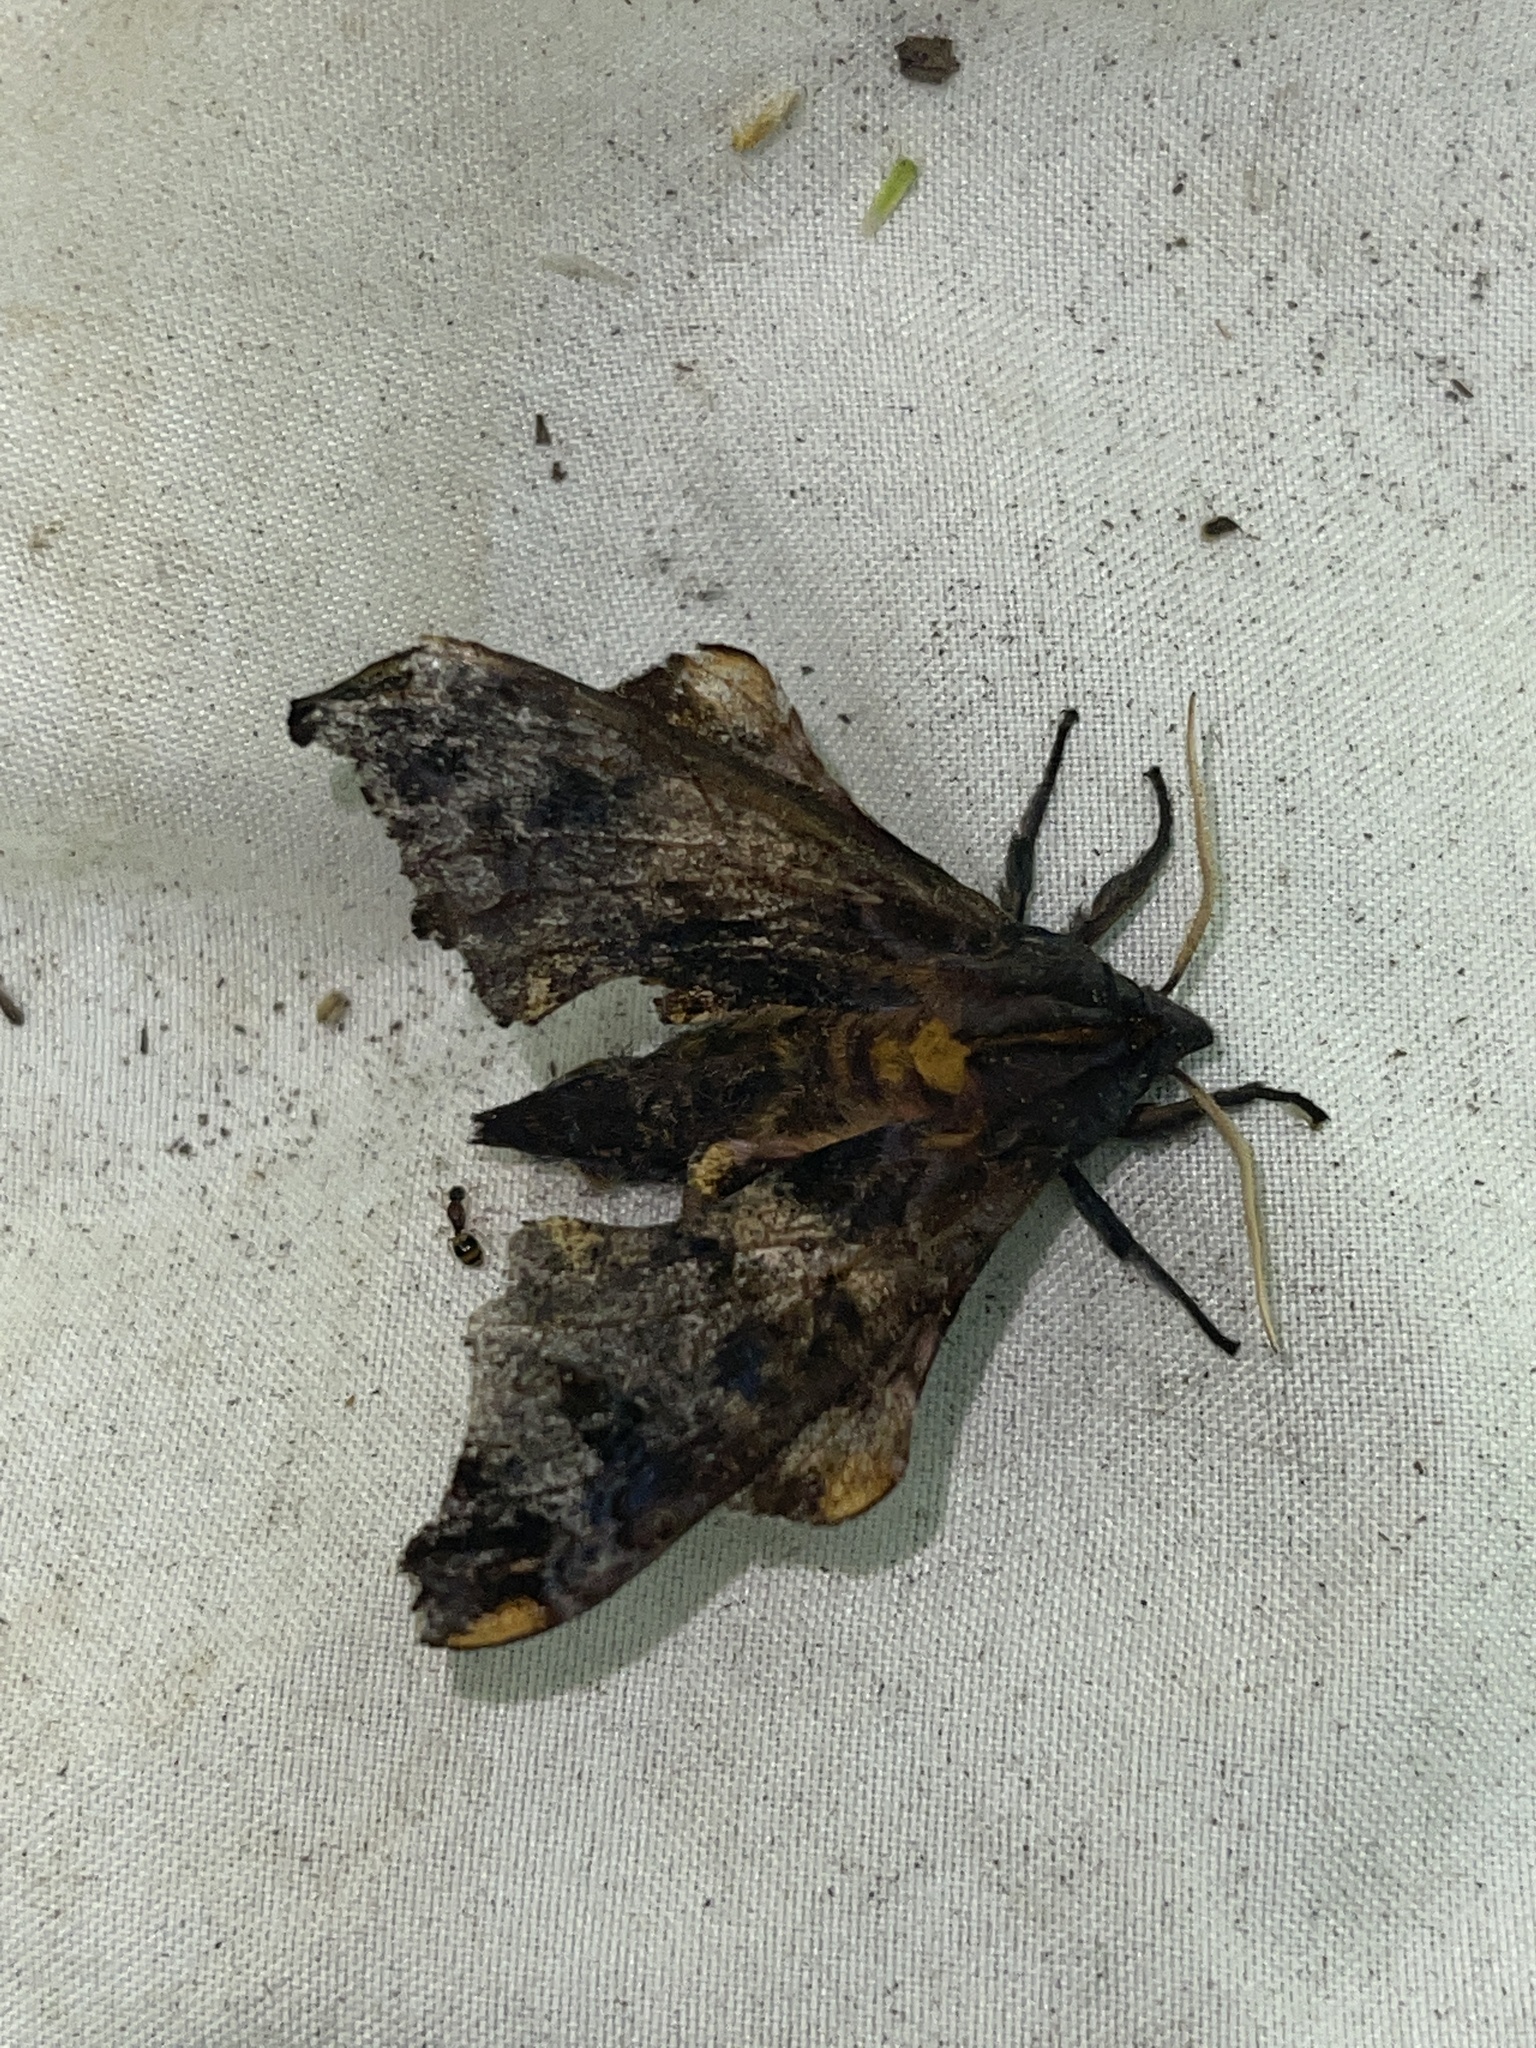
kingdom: Animalia
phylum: Arthropoda
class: Insecta
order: Lepidoptera
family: Sphingidae
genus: Paonias
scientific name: Paonias myops
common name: Small-eyed sphinx
